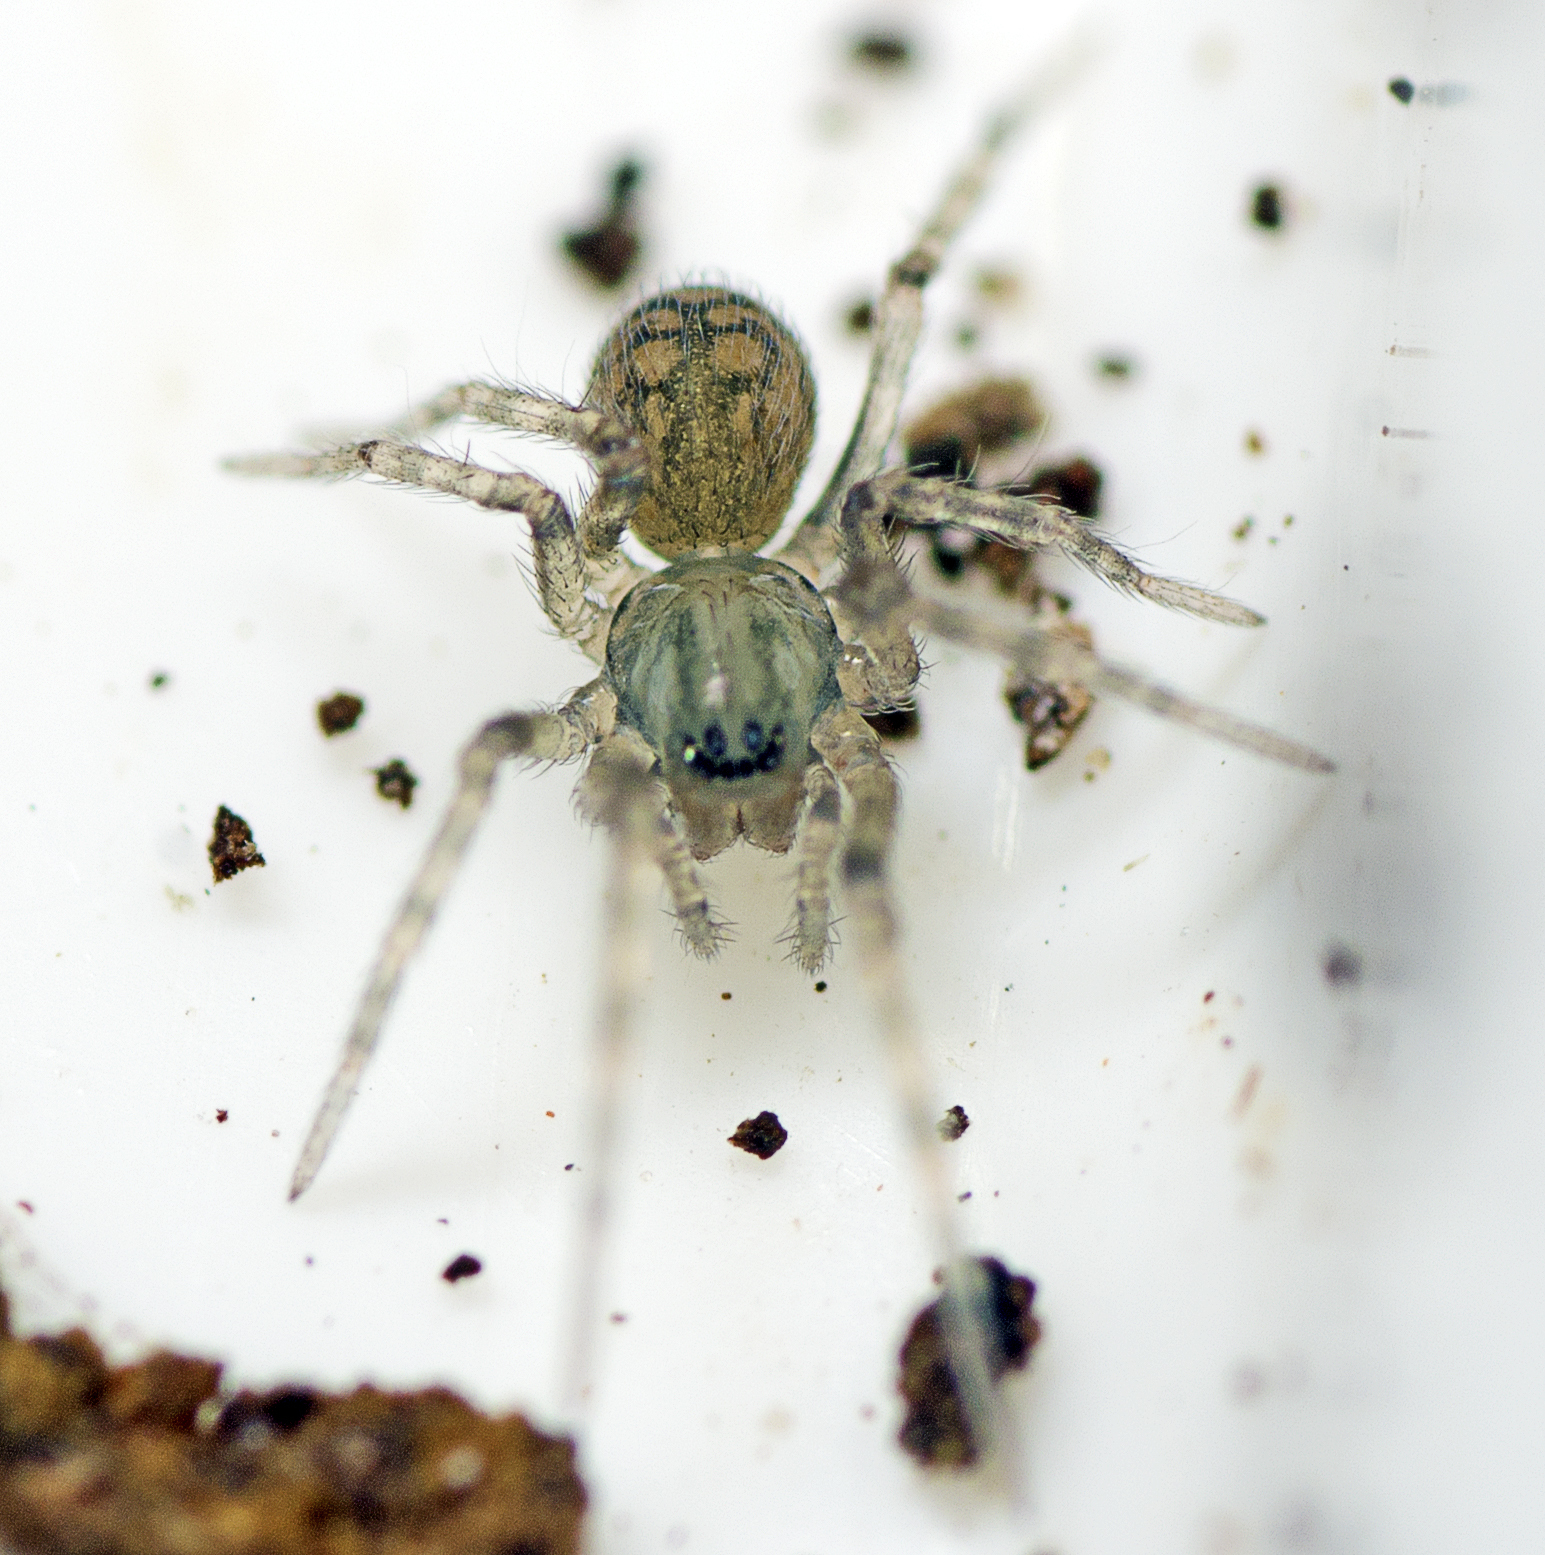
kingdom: Animalia
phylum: Arthropoda
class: Arachnida
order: Araneae
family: Desidae
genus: Barahna
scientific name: Barahna booloumba
